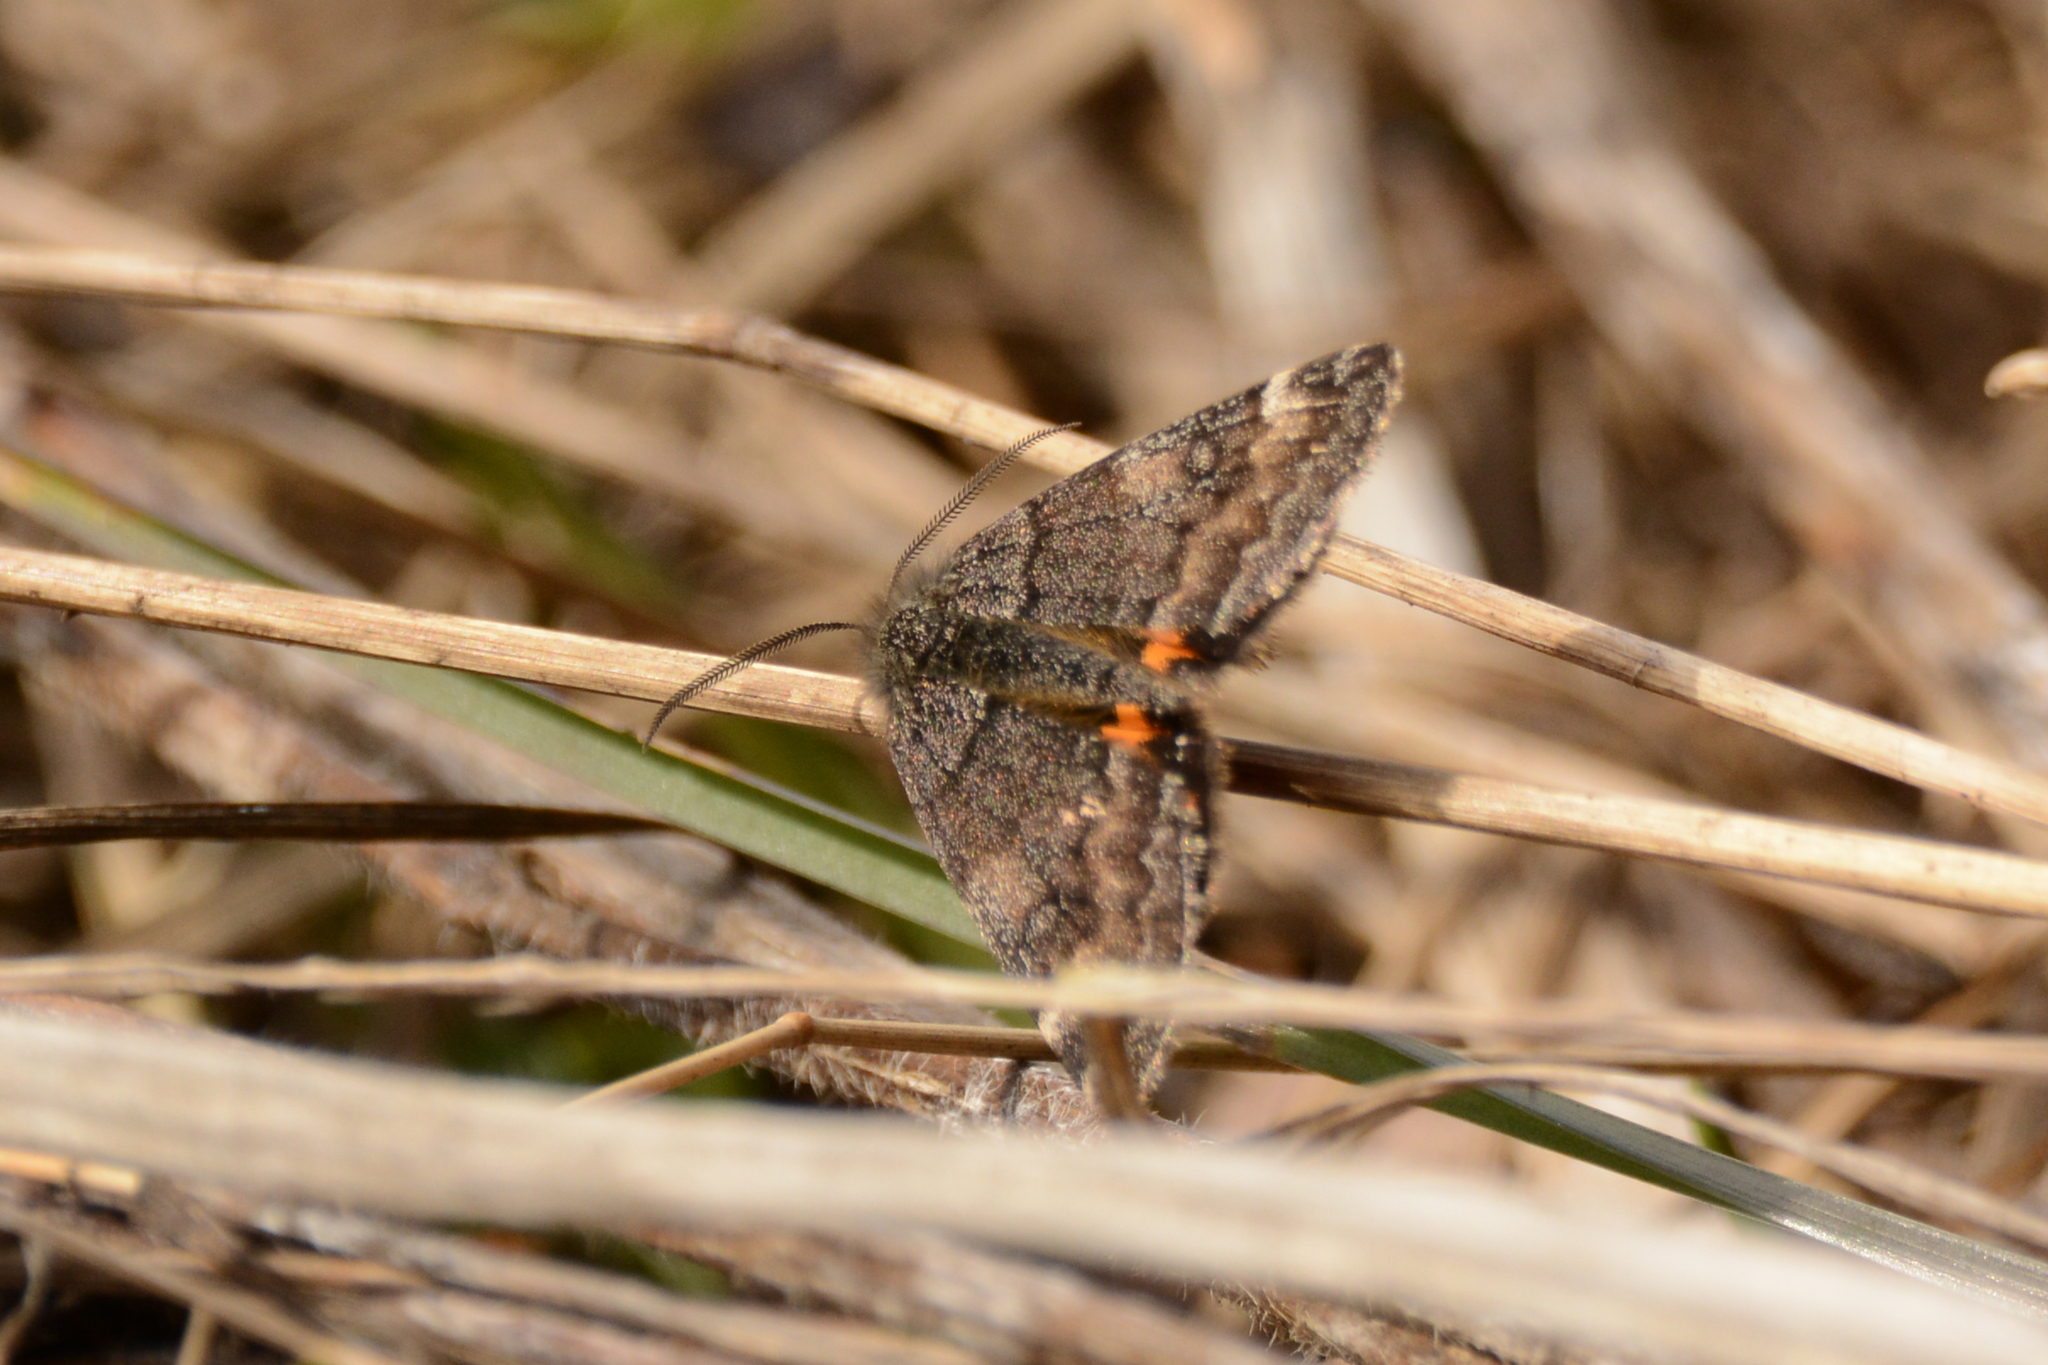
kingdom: Animalia
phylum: Arthropoda
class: Insecta
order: Lepidoptera
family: Geometridae
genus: Archiearis
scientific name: Archiearis notha
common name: Light orange underwing
